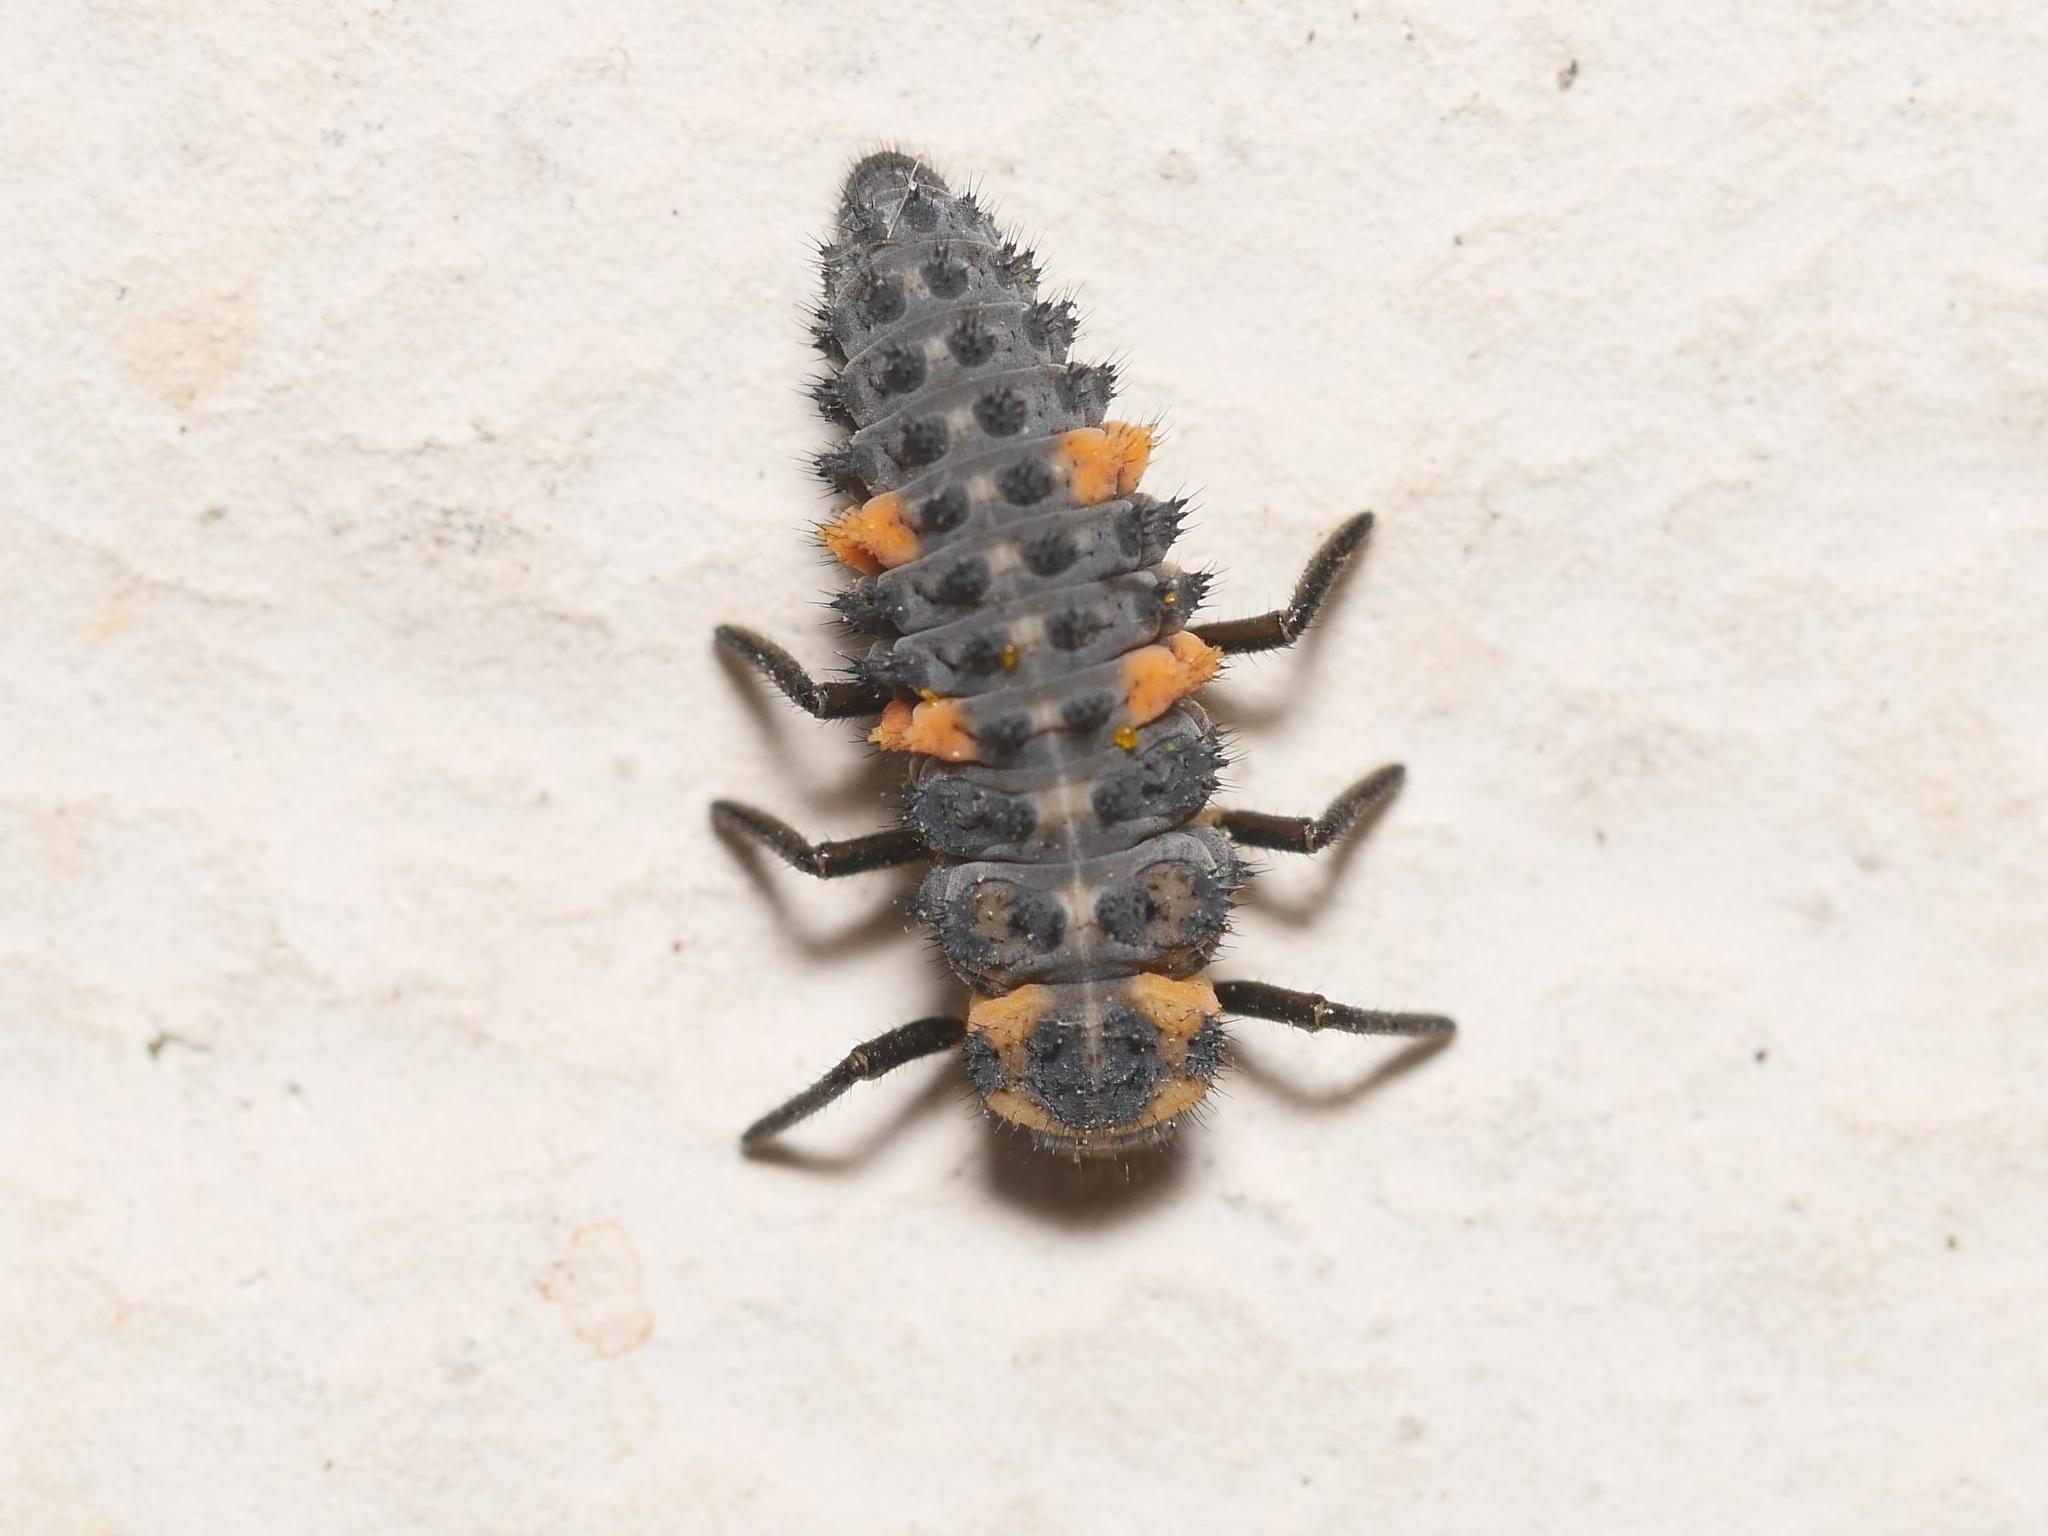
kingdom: Animalia
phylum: Arthropoda
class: Insecta
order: Coleoptera
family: Coccinellidae
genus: Coccinella
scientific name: Coccinella septempunctata
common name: Sevenspotted lady beetle
